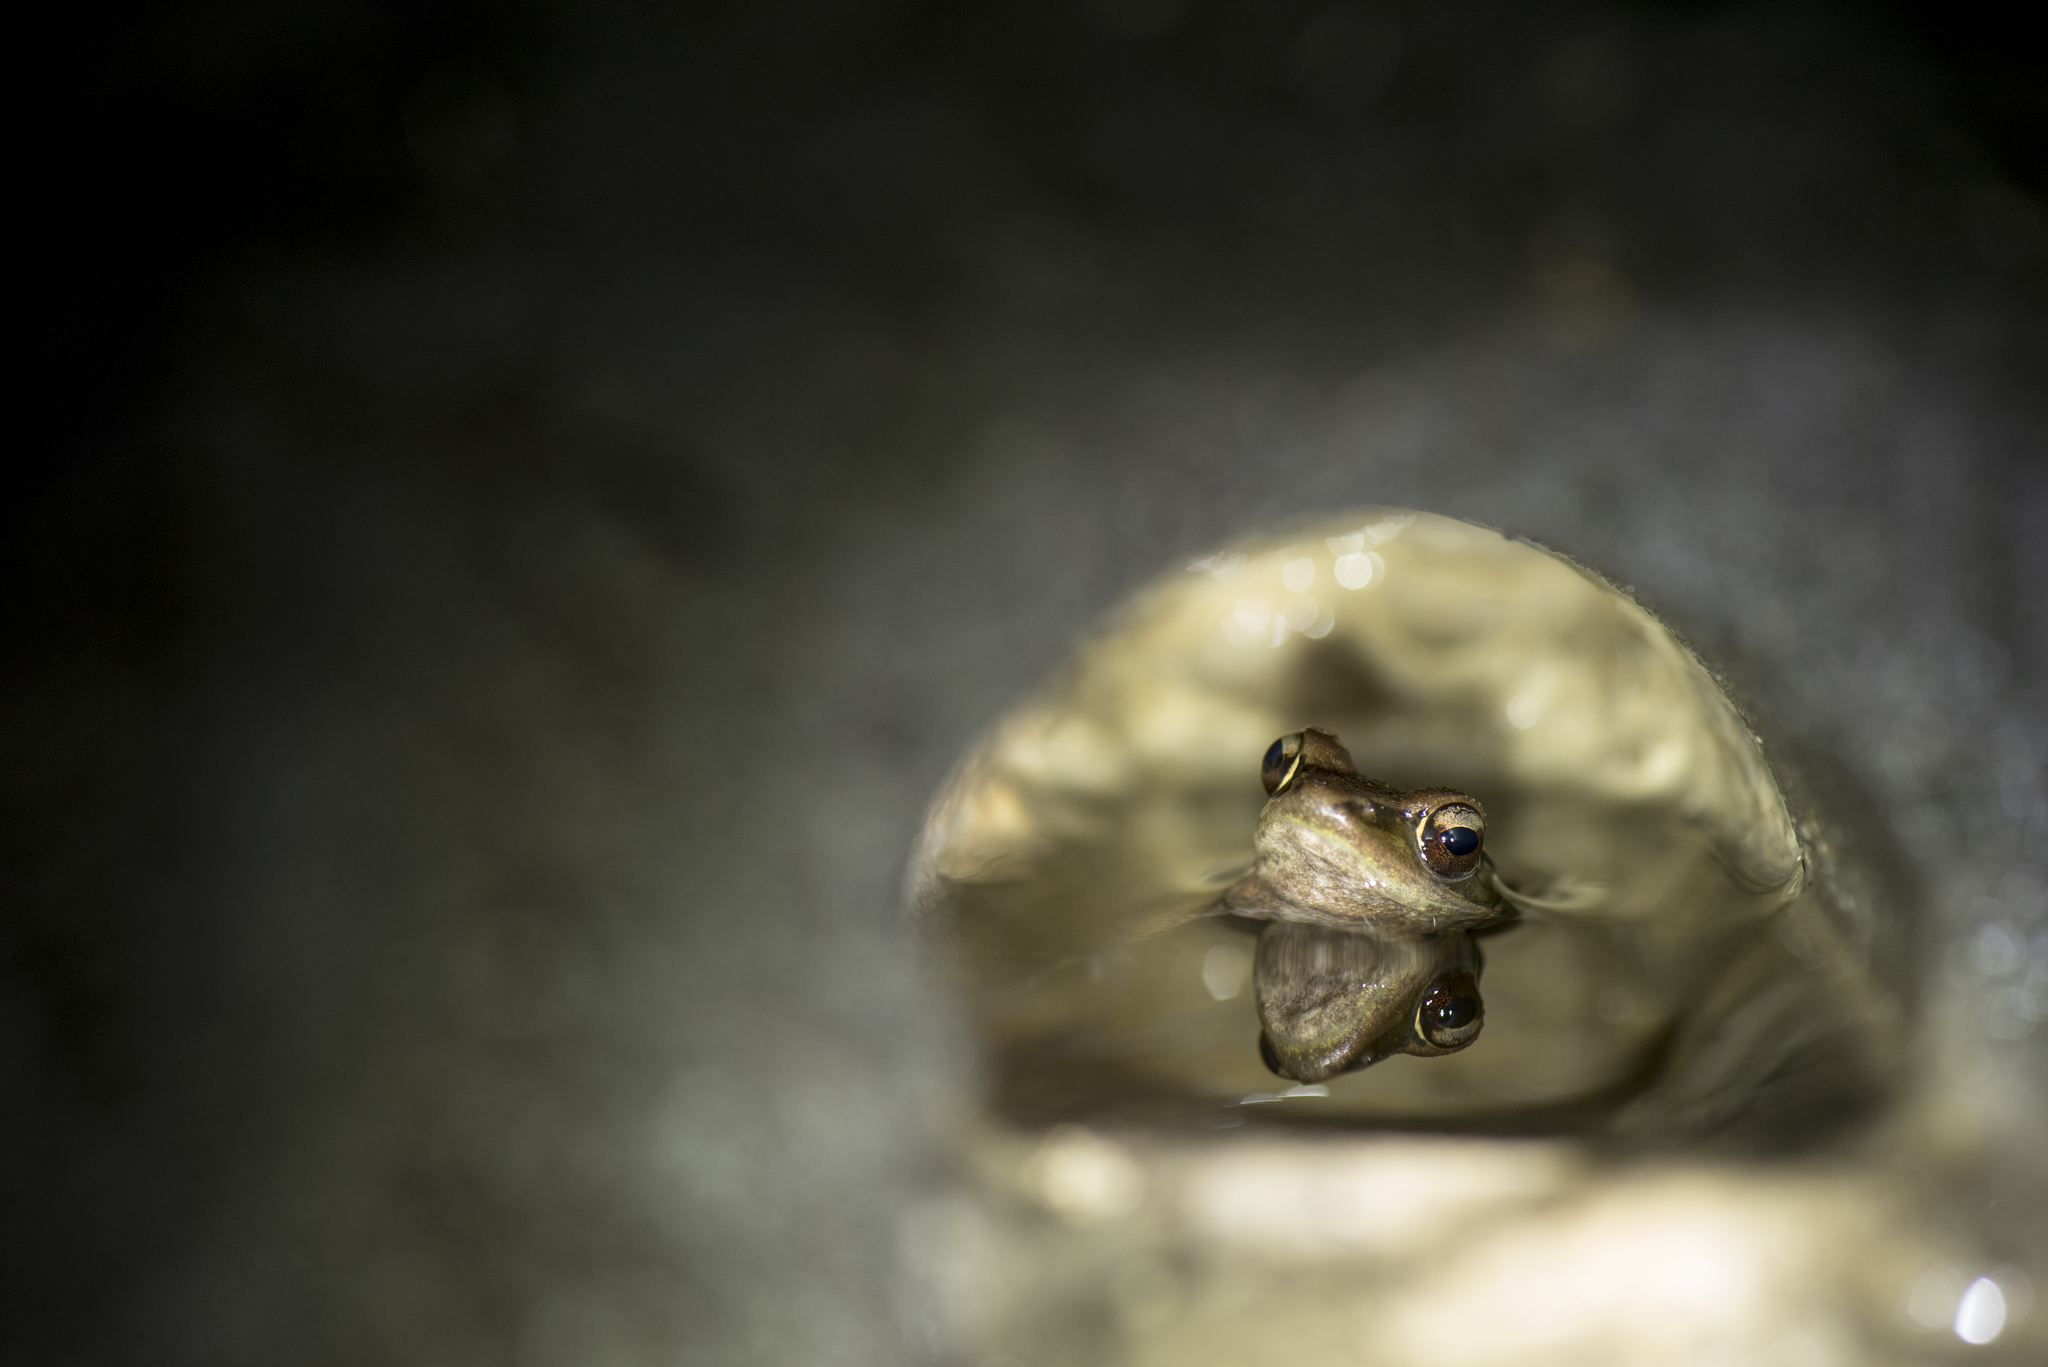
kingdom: Animalia
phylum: Chordata
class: Amphibia
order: Anura
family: Ranidae
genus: Hylarana
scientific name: Hylarana latouchii
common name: Broad-folded frog
